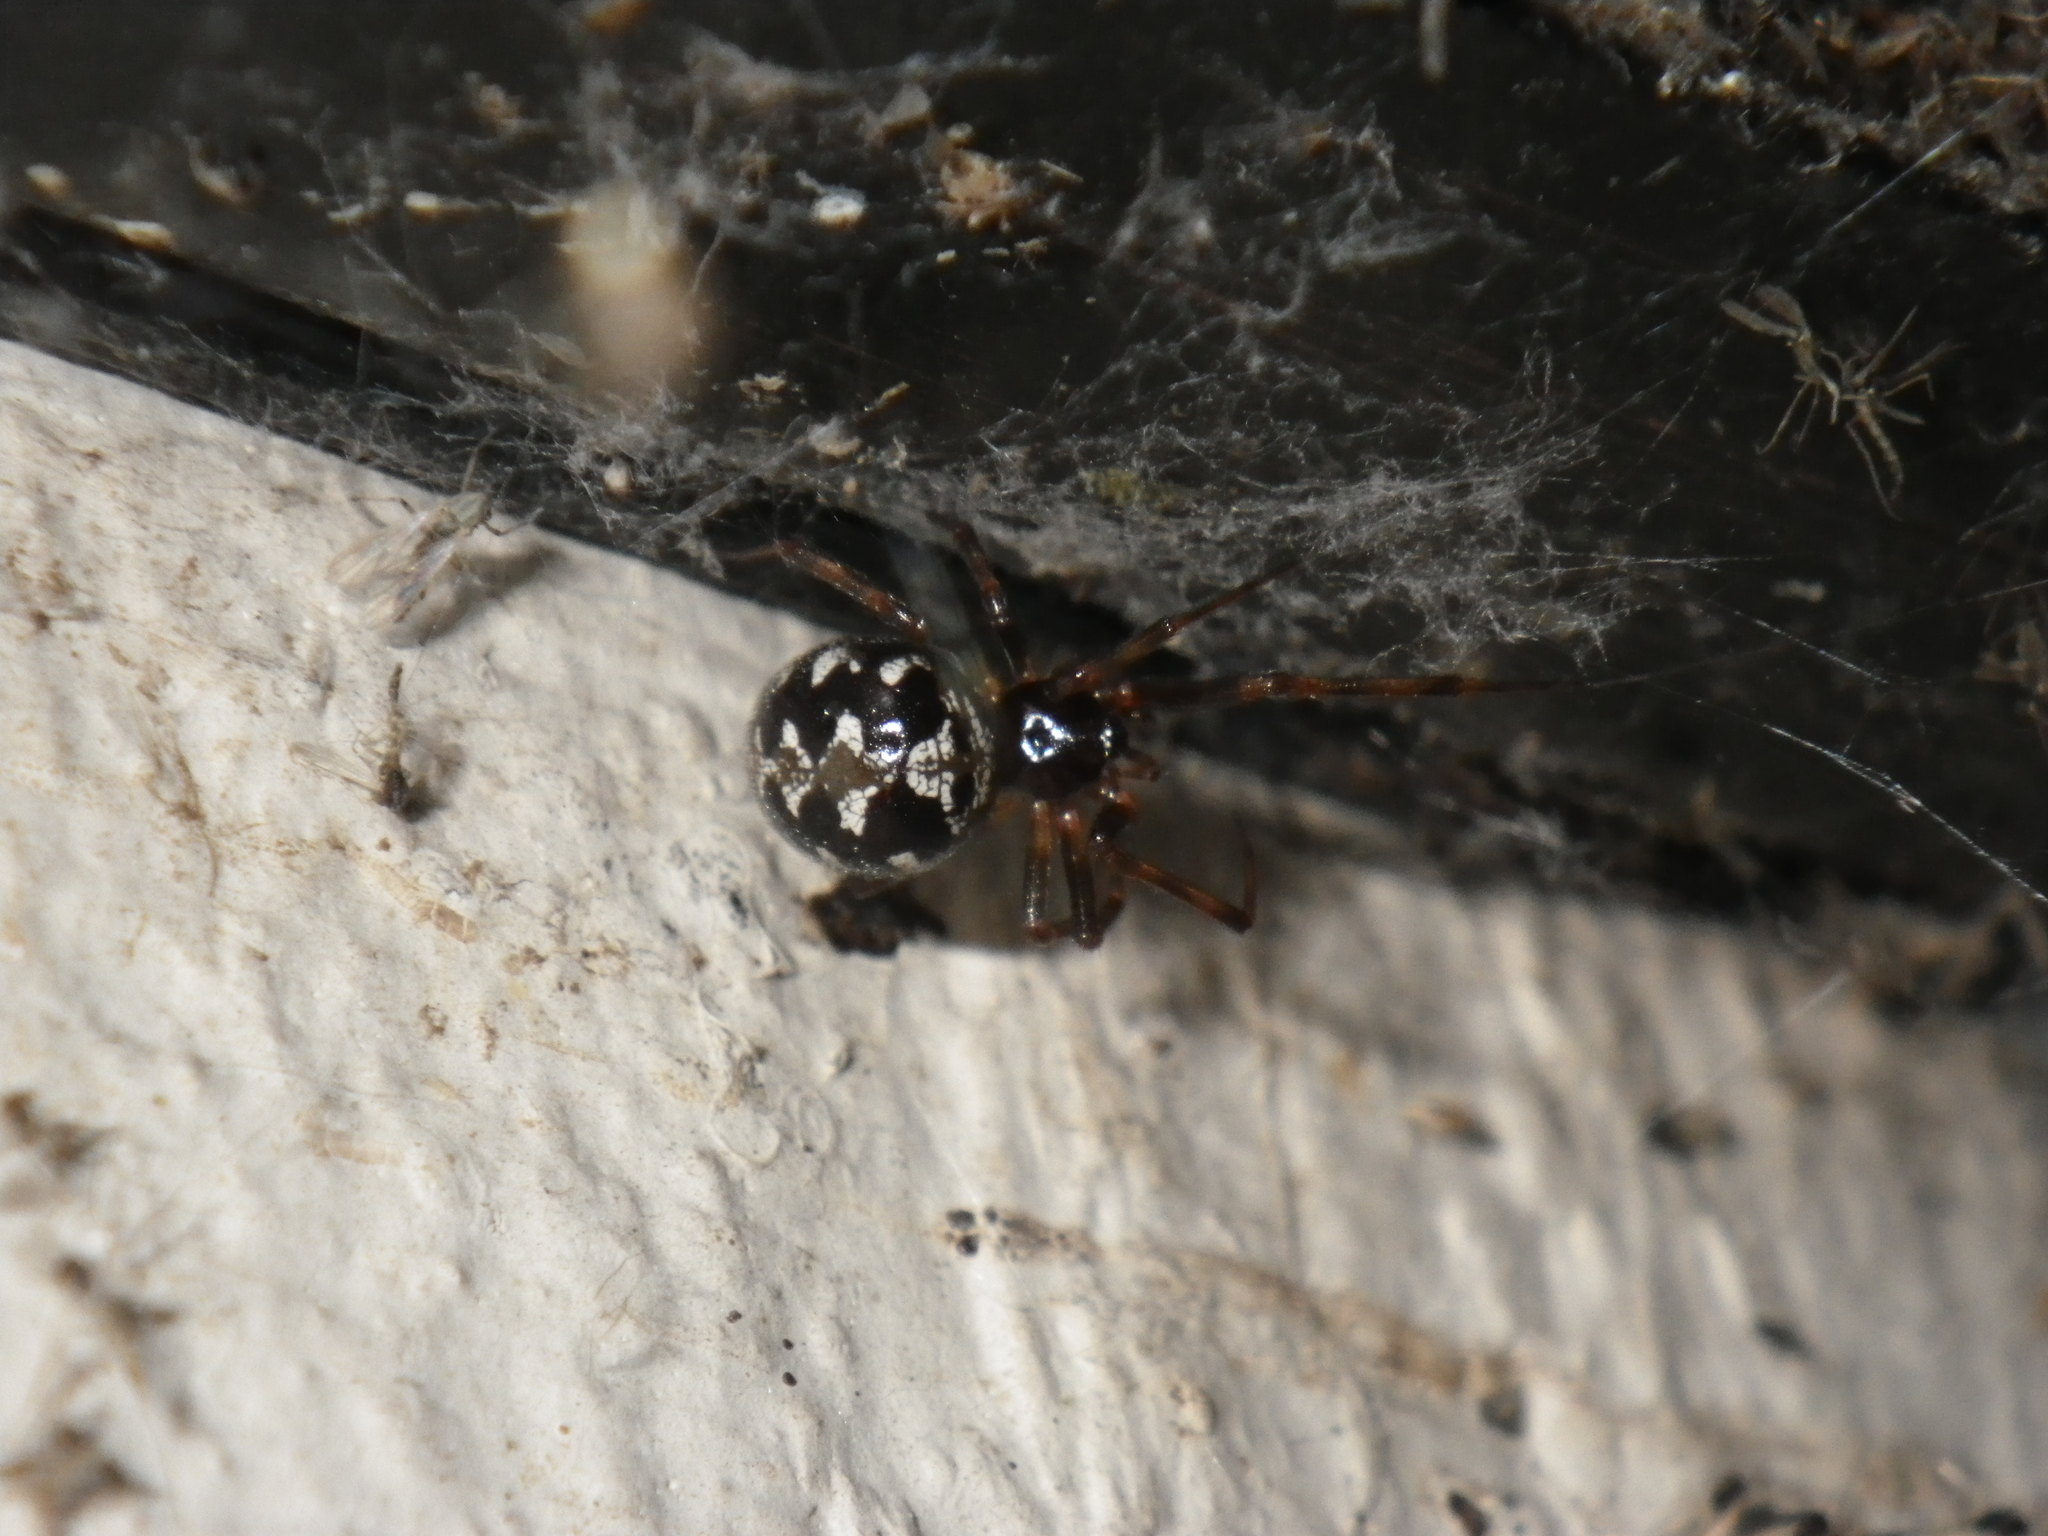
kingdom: Animalia
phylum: Arthropoda
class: Arachnida
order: Araneae
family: Theridiidae
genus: Steatoda
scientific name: Steatoda triangulosa
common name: Triangulate bud spider
